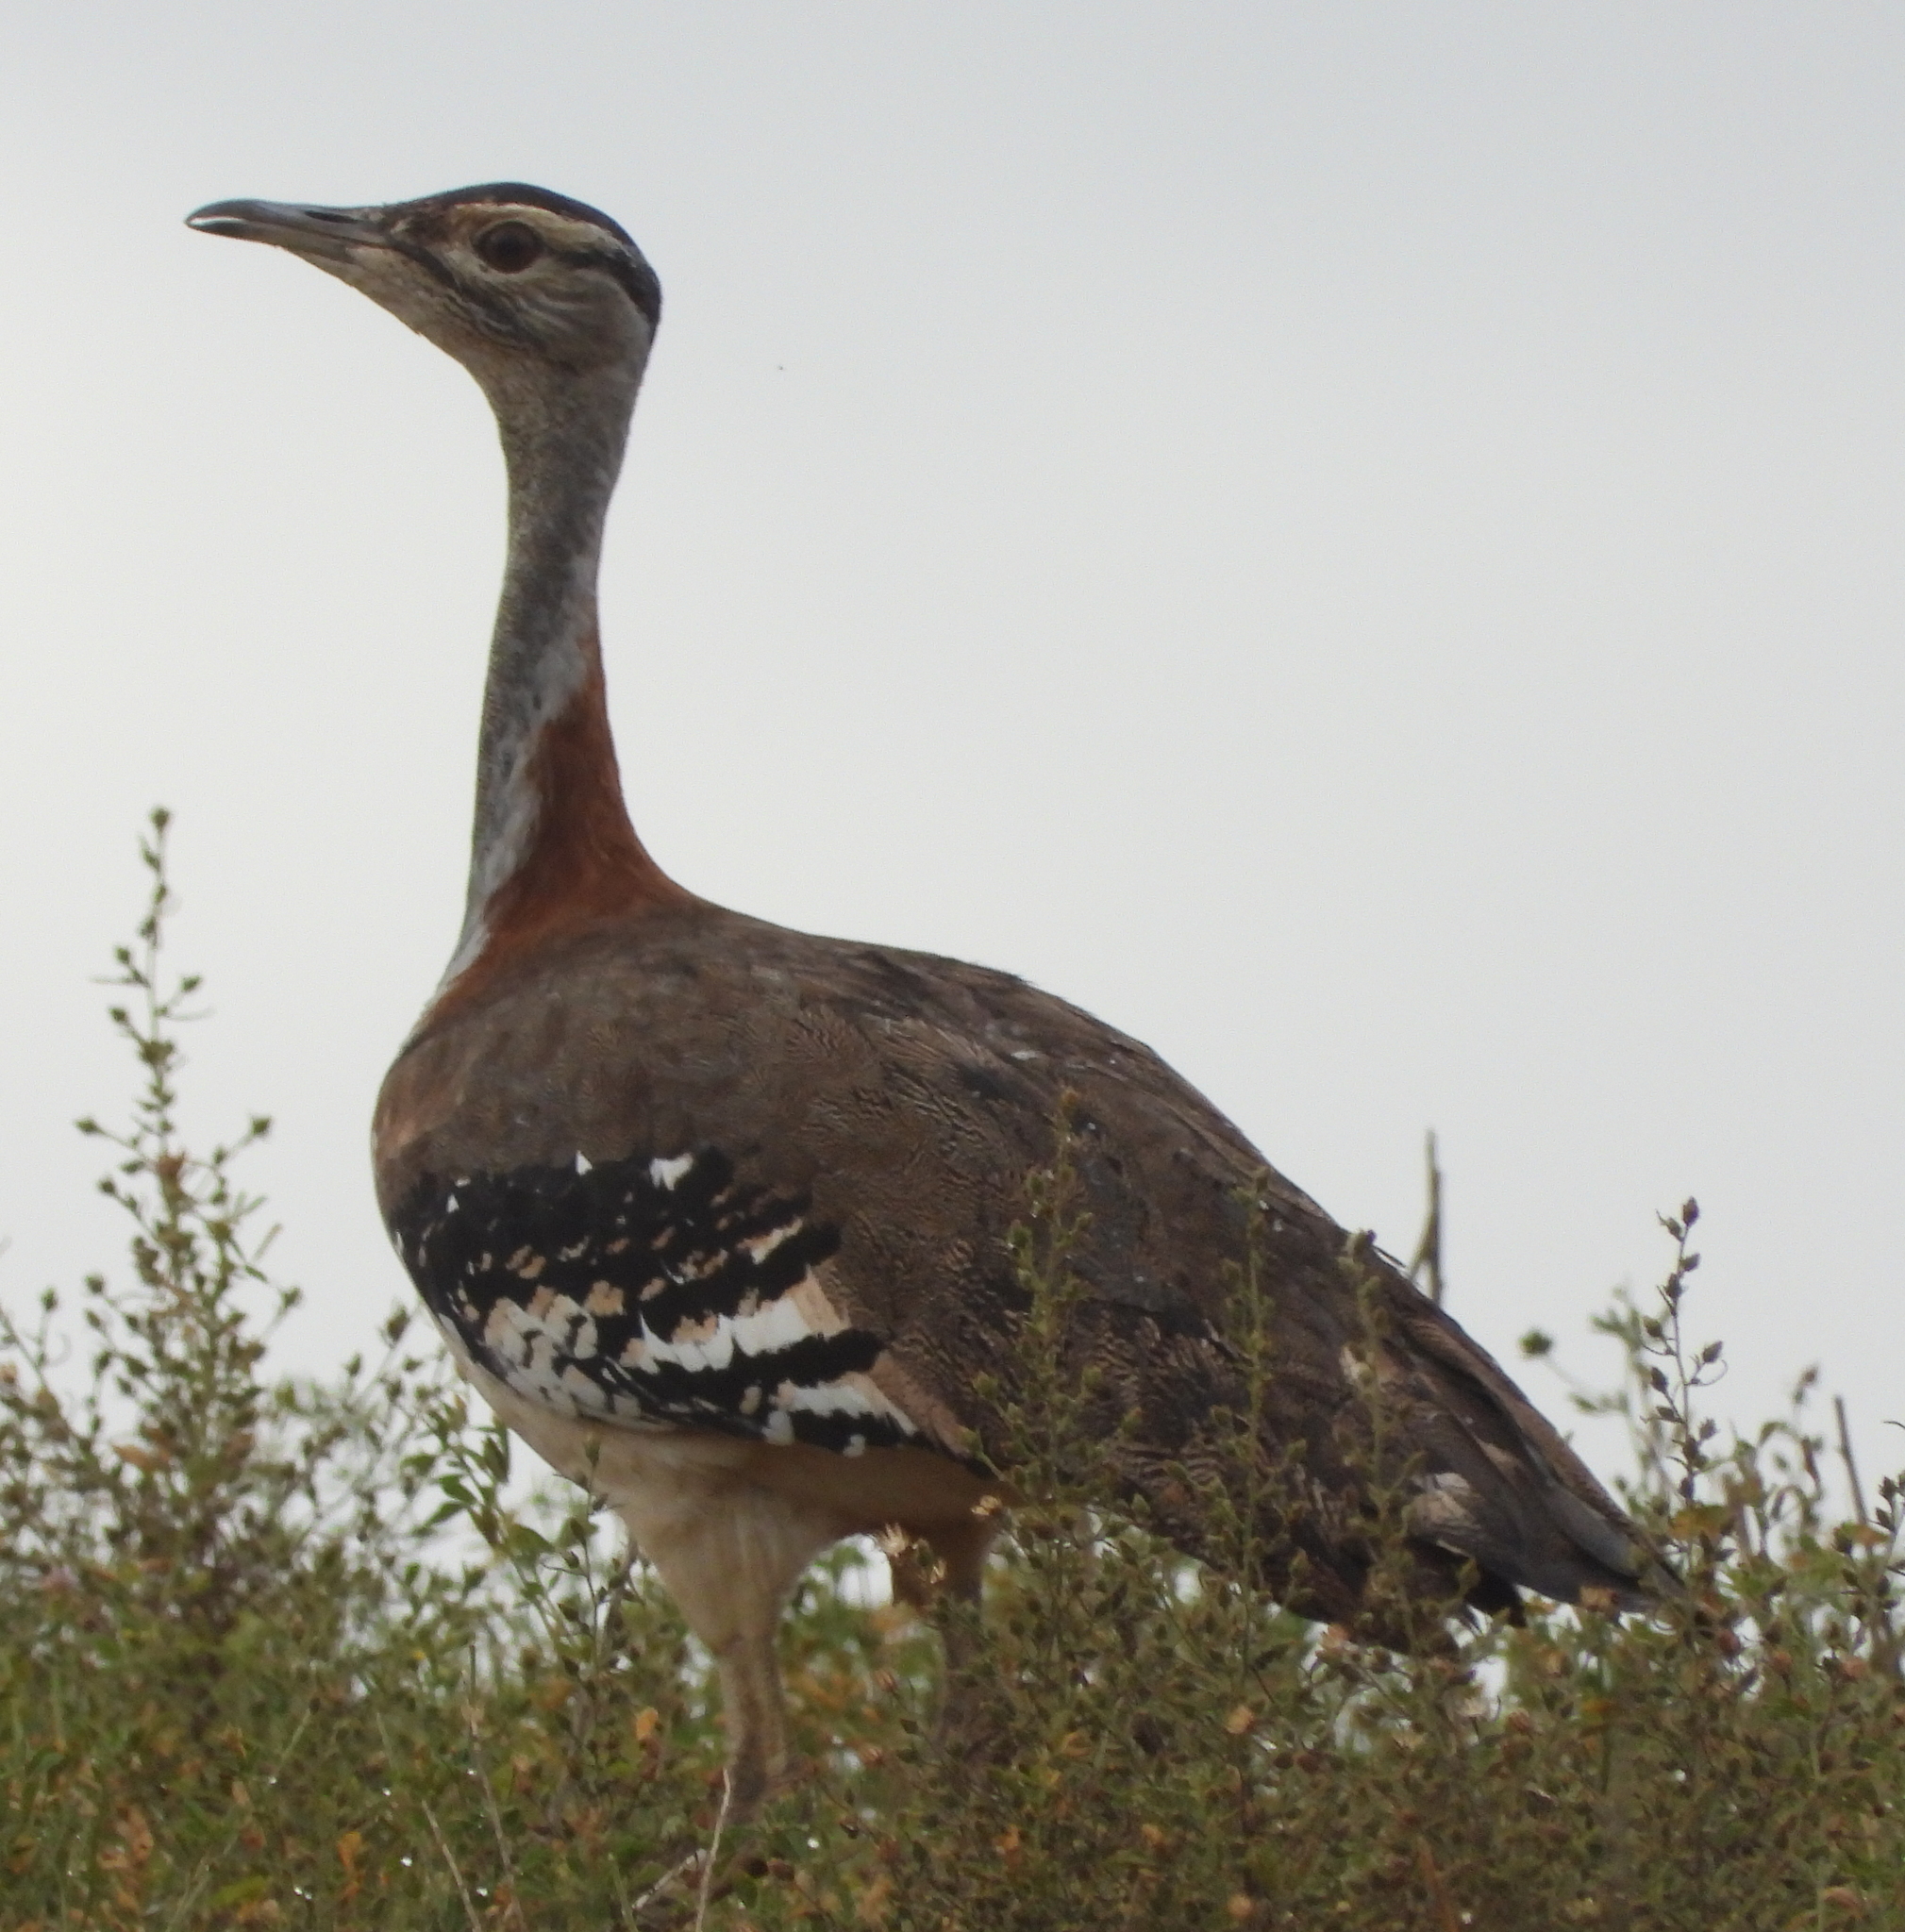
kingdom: Animalia
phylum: Chordata
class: Aves
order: Otidiformes
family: Otididae
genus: Neotis
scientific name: Neotis denhami
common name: Denham's bustard
